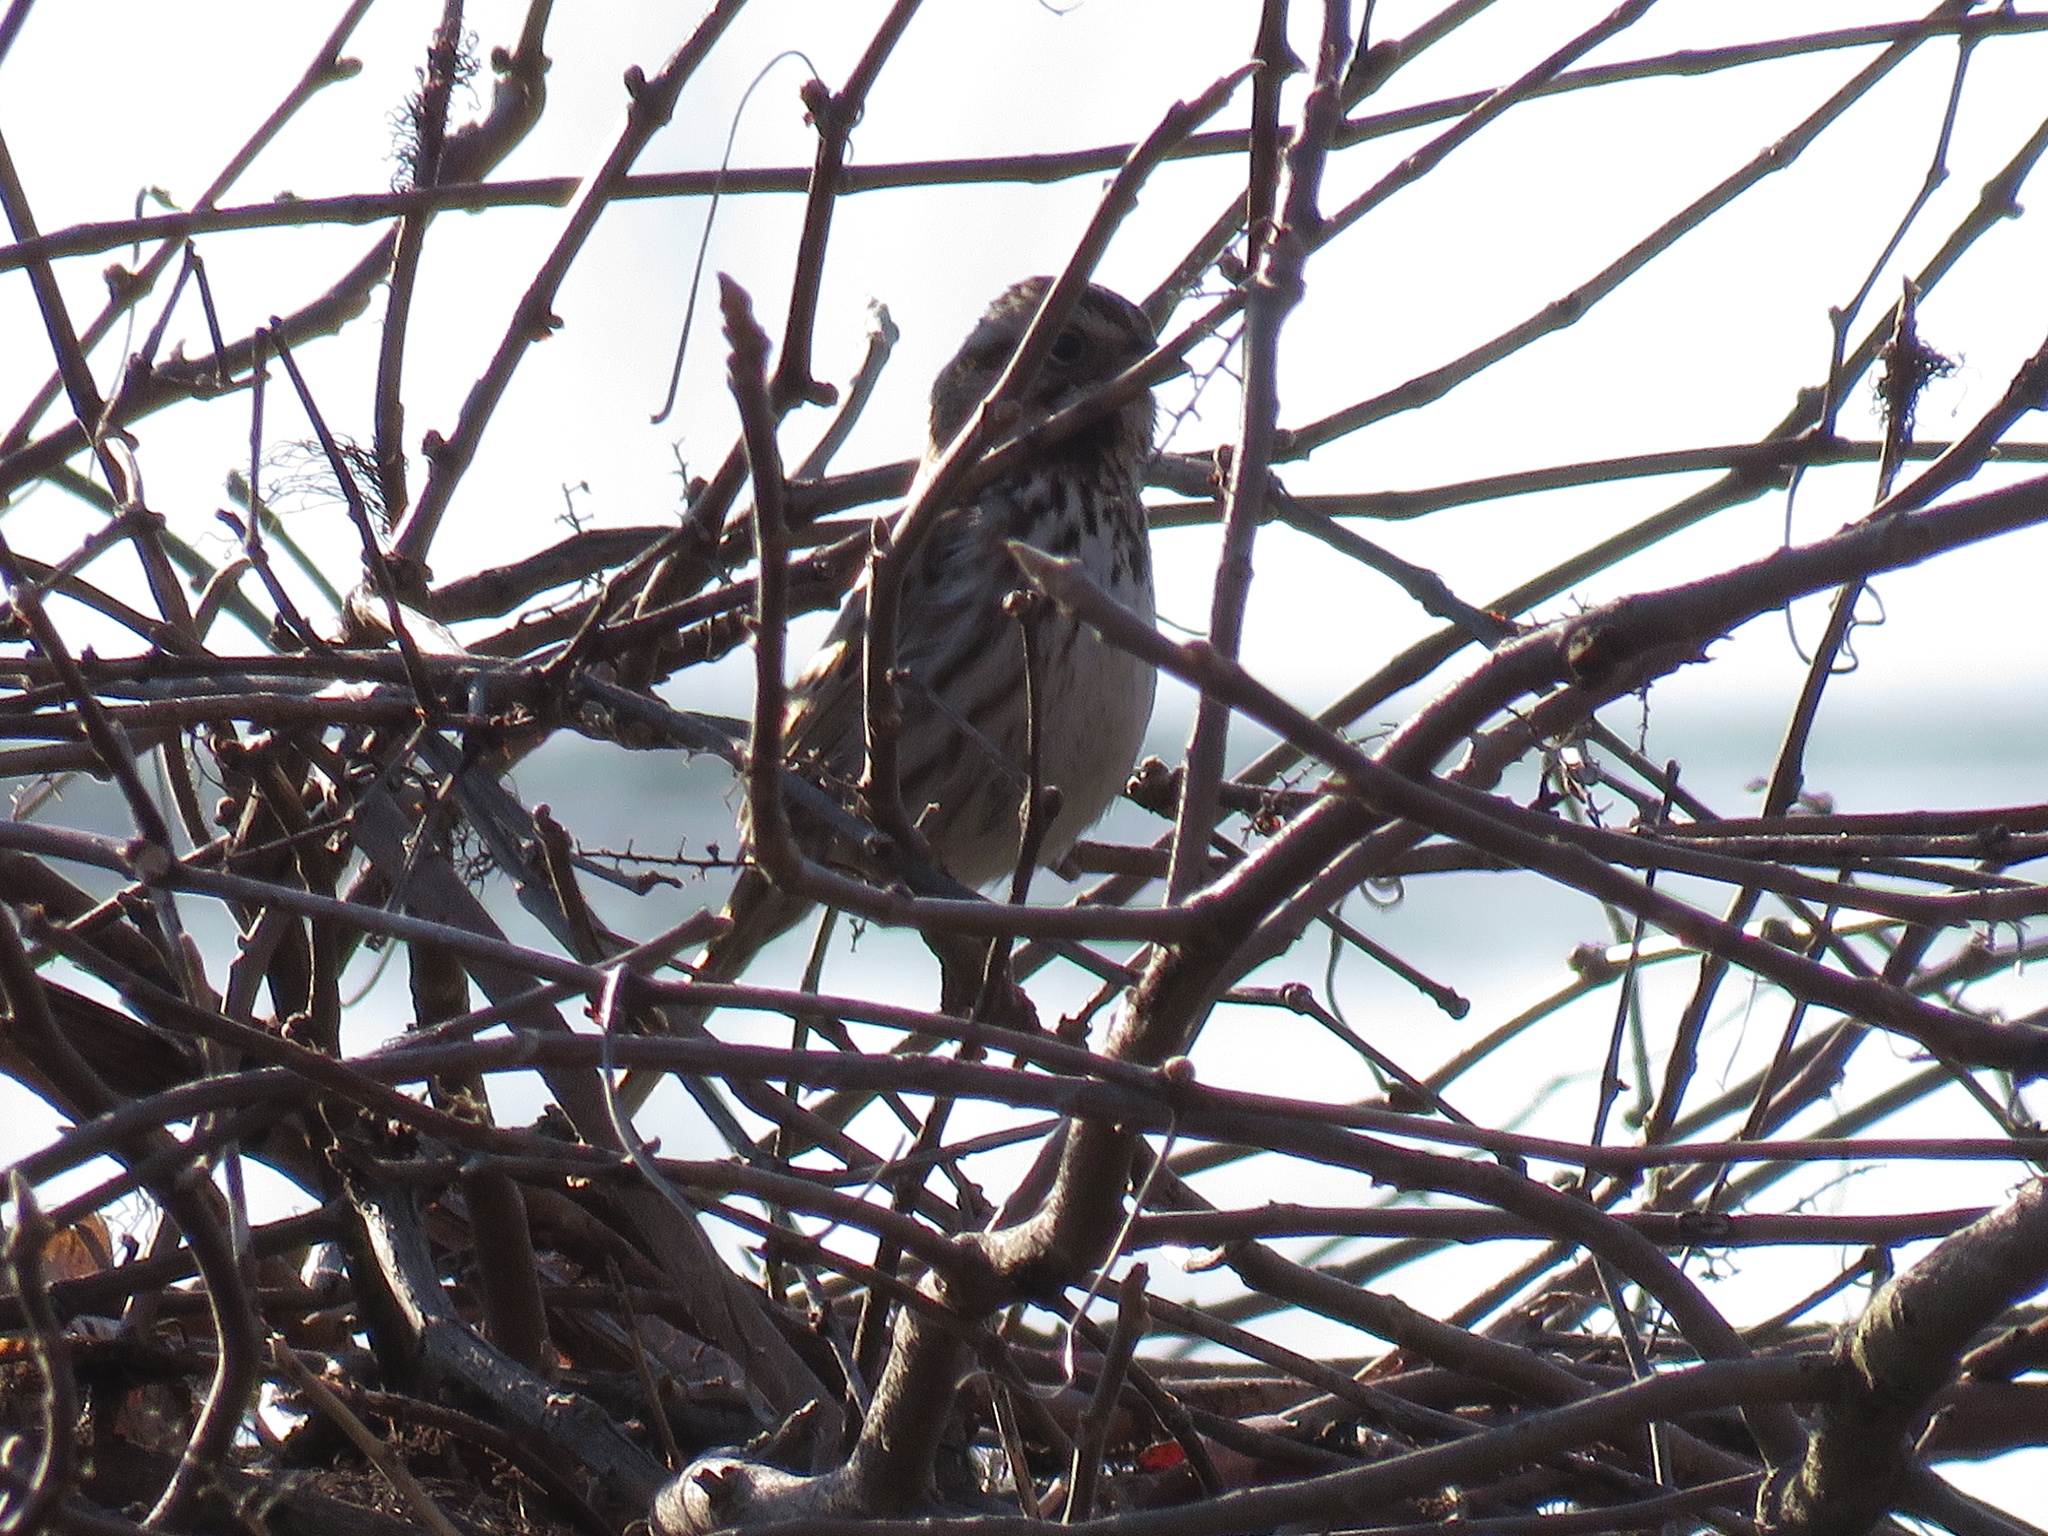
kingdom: Animalia
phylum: Chordata
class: Aves
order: Passeriformes
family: Passerellidae
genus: Melospiza
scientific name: Melospiza melodia
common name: Song sparrow
